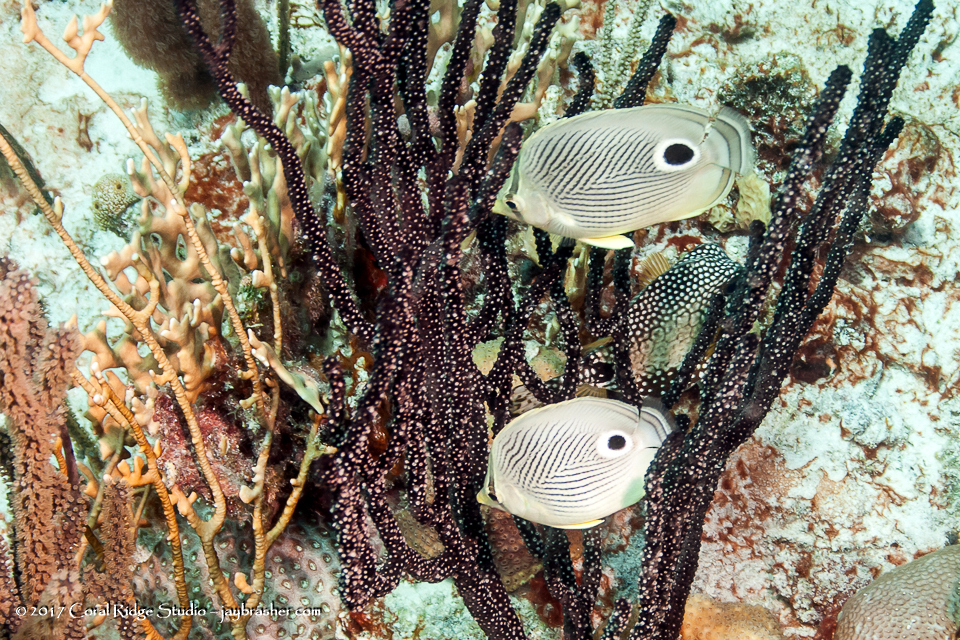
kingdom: Animalia
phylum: Chordata
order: Perciformes
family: Chaetodontidae
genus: Chaetodon
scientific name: Chaetodon capistratus
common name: Kete
